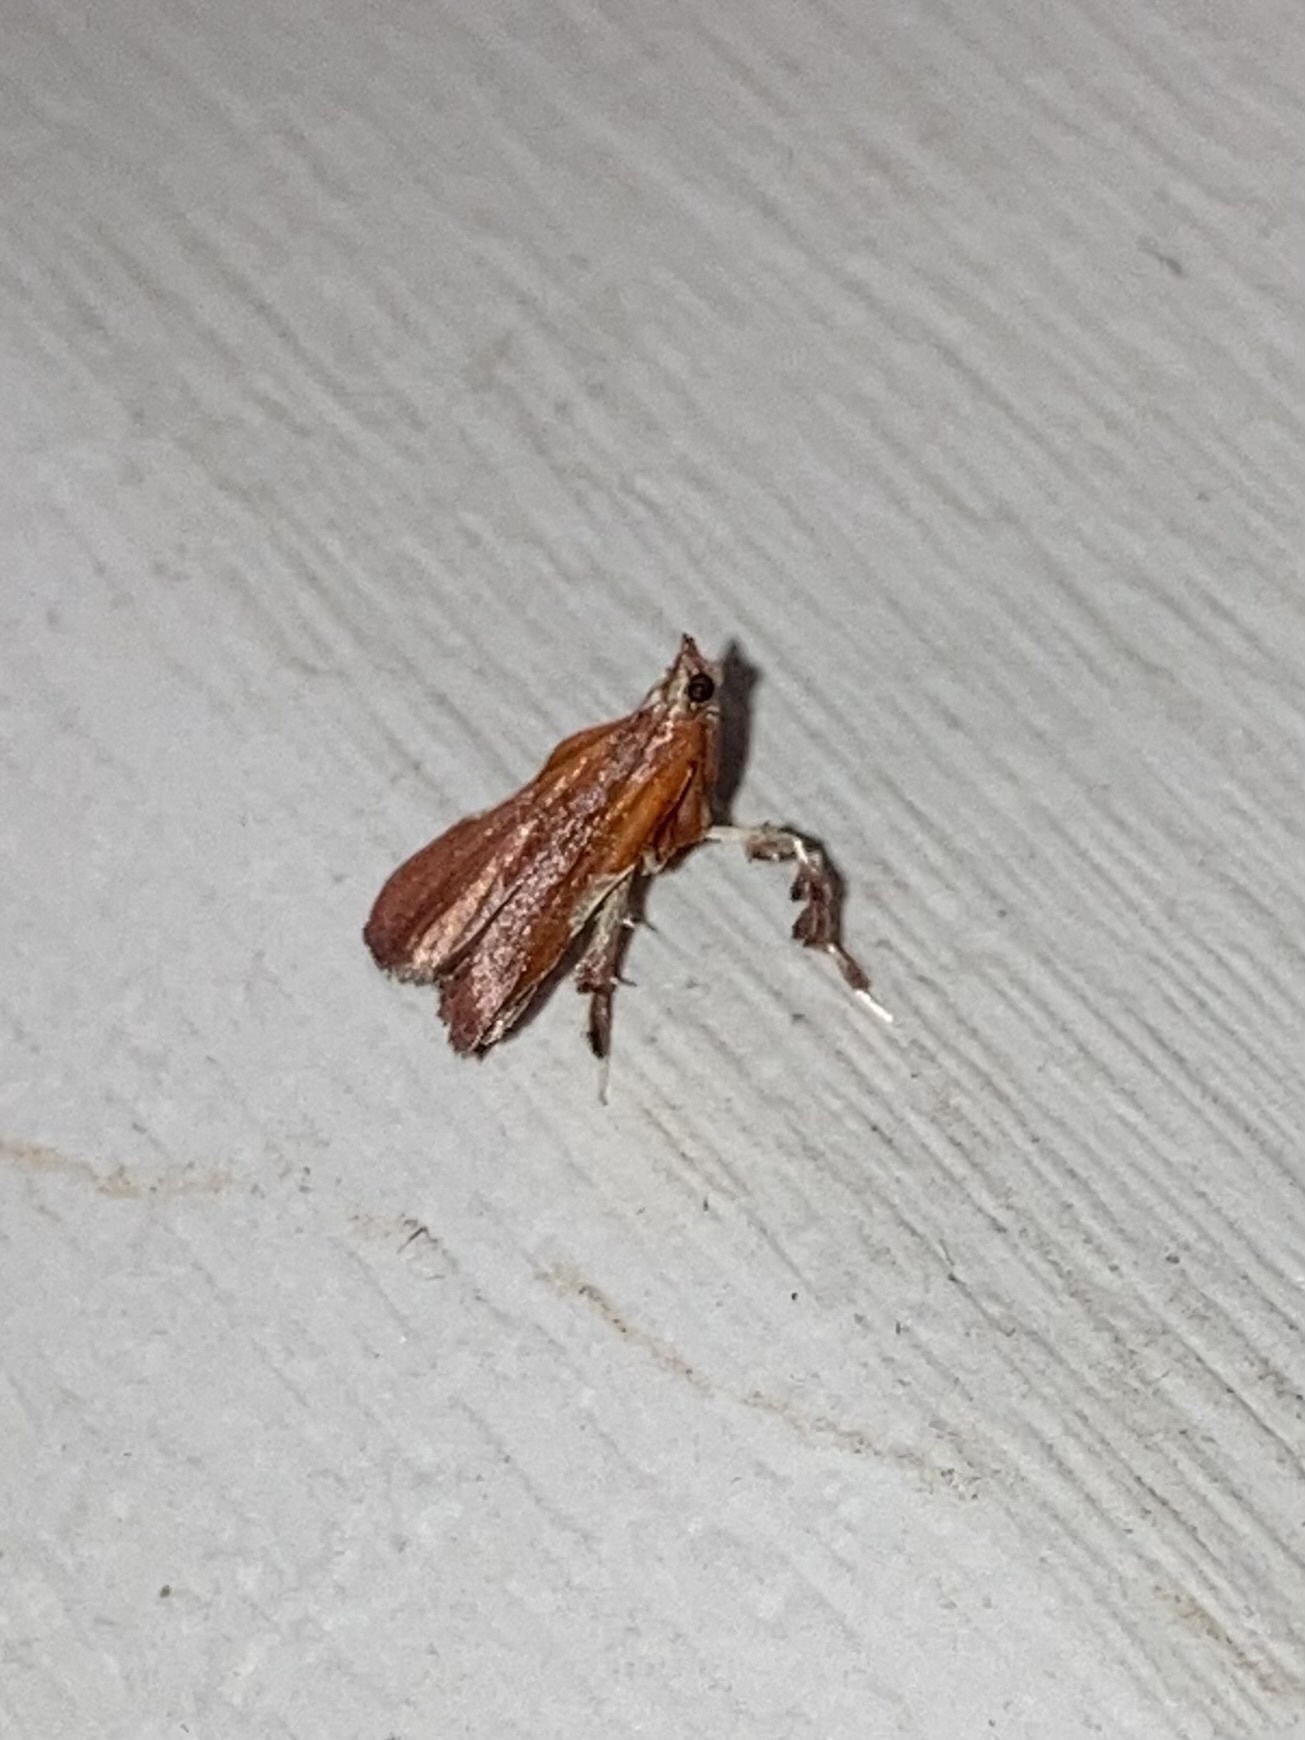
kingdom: Animalia
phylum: Arthropoda
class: Insecta
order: Lepidoptera
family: Pyralidae
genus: Galasa
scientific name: Galasa nigrinodis
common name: Boxwood leaftier moth
